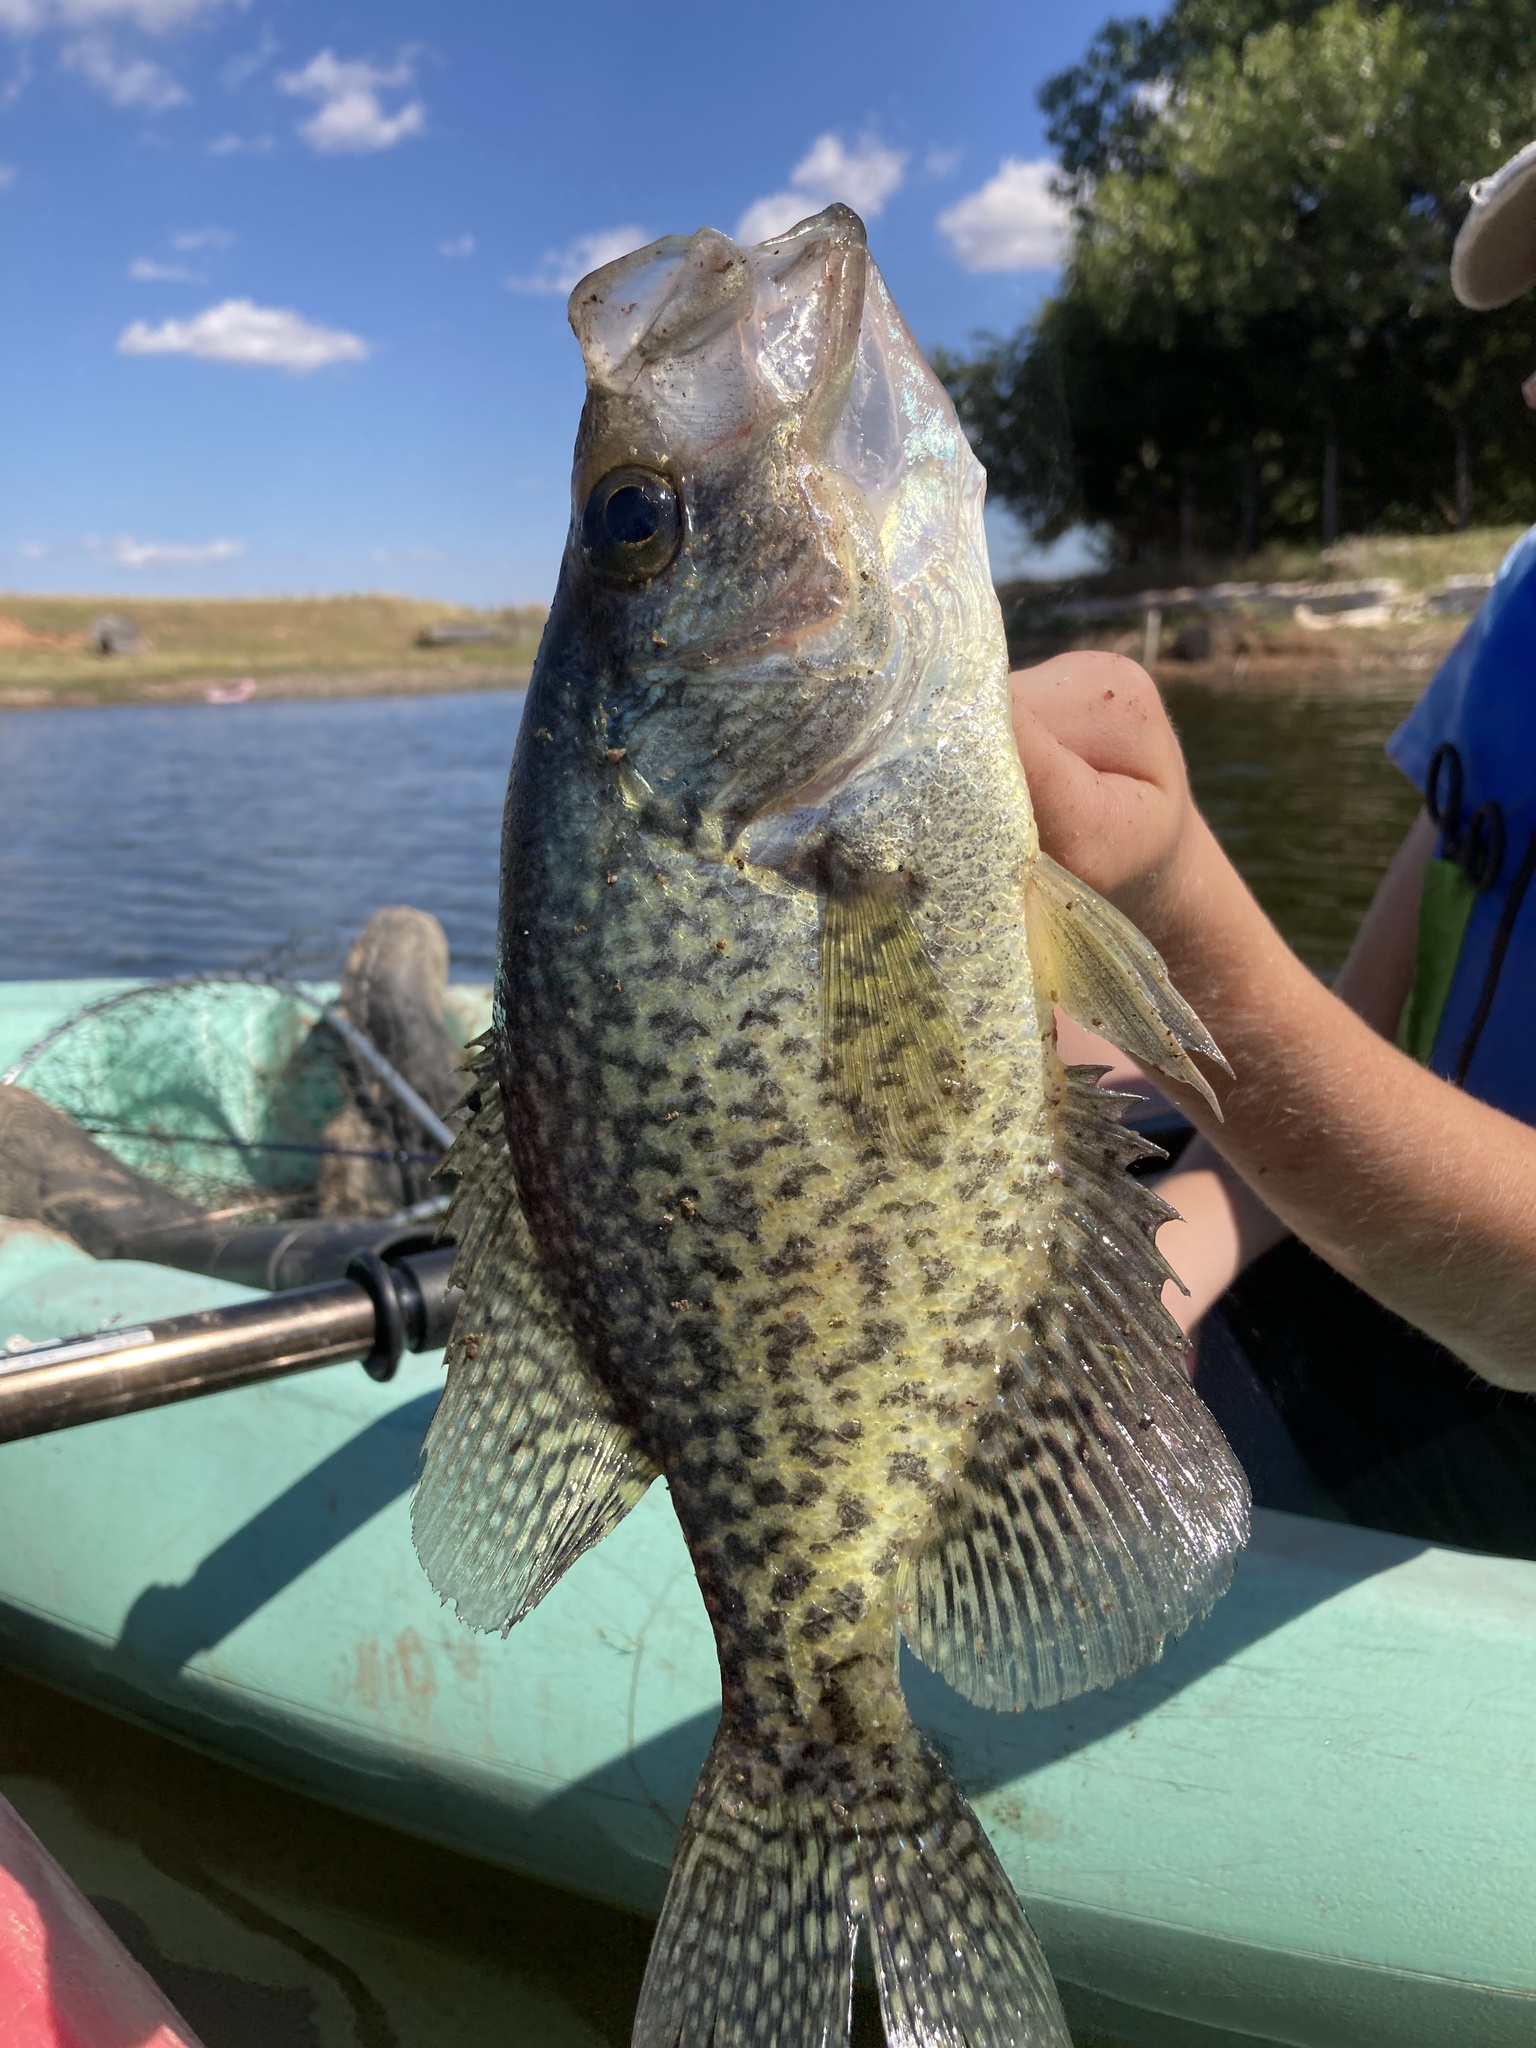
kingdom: Animalia
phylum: Chordata
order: Perciformes
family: Centrarchidae
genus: Pomoxis
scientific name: Pomoxis nigromaculatus
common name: Black crappie
